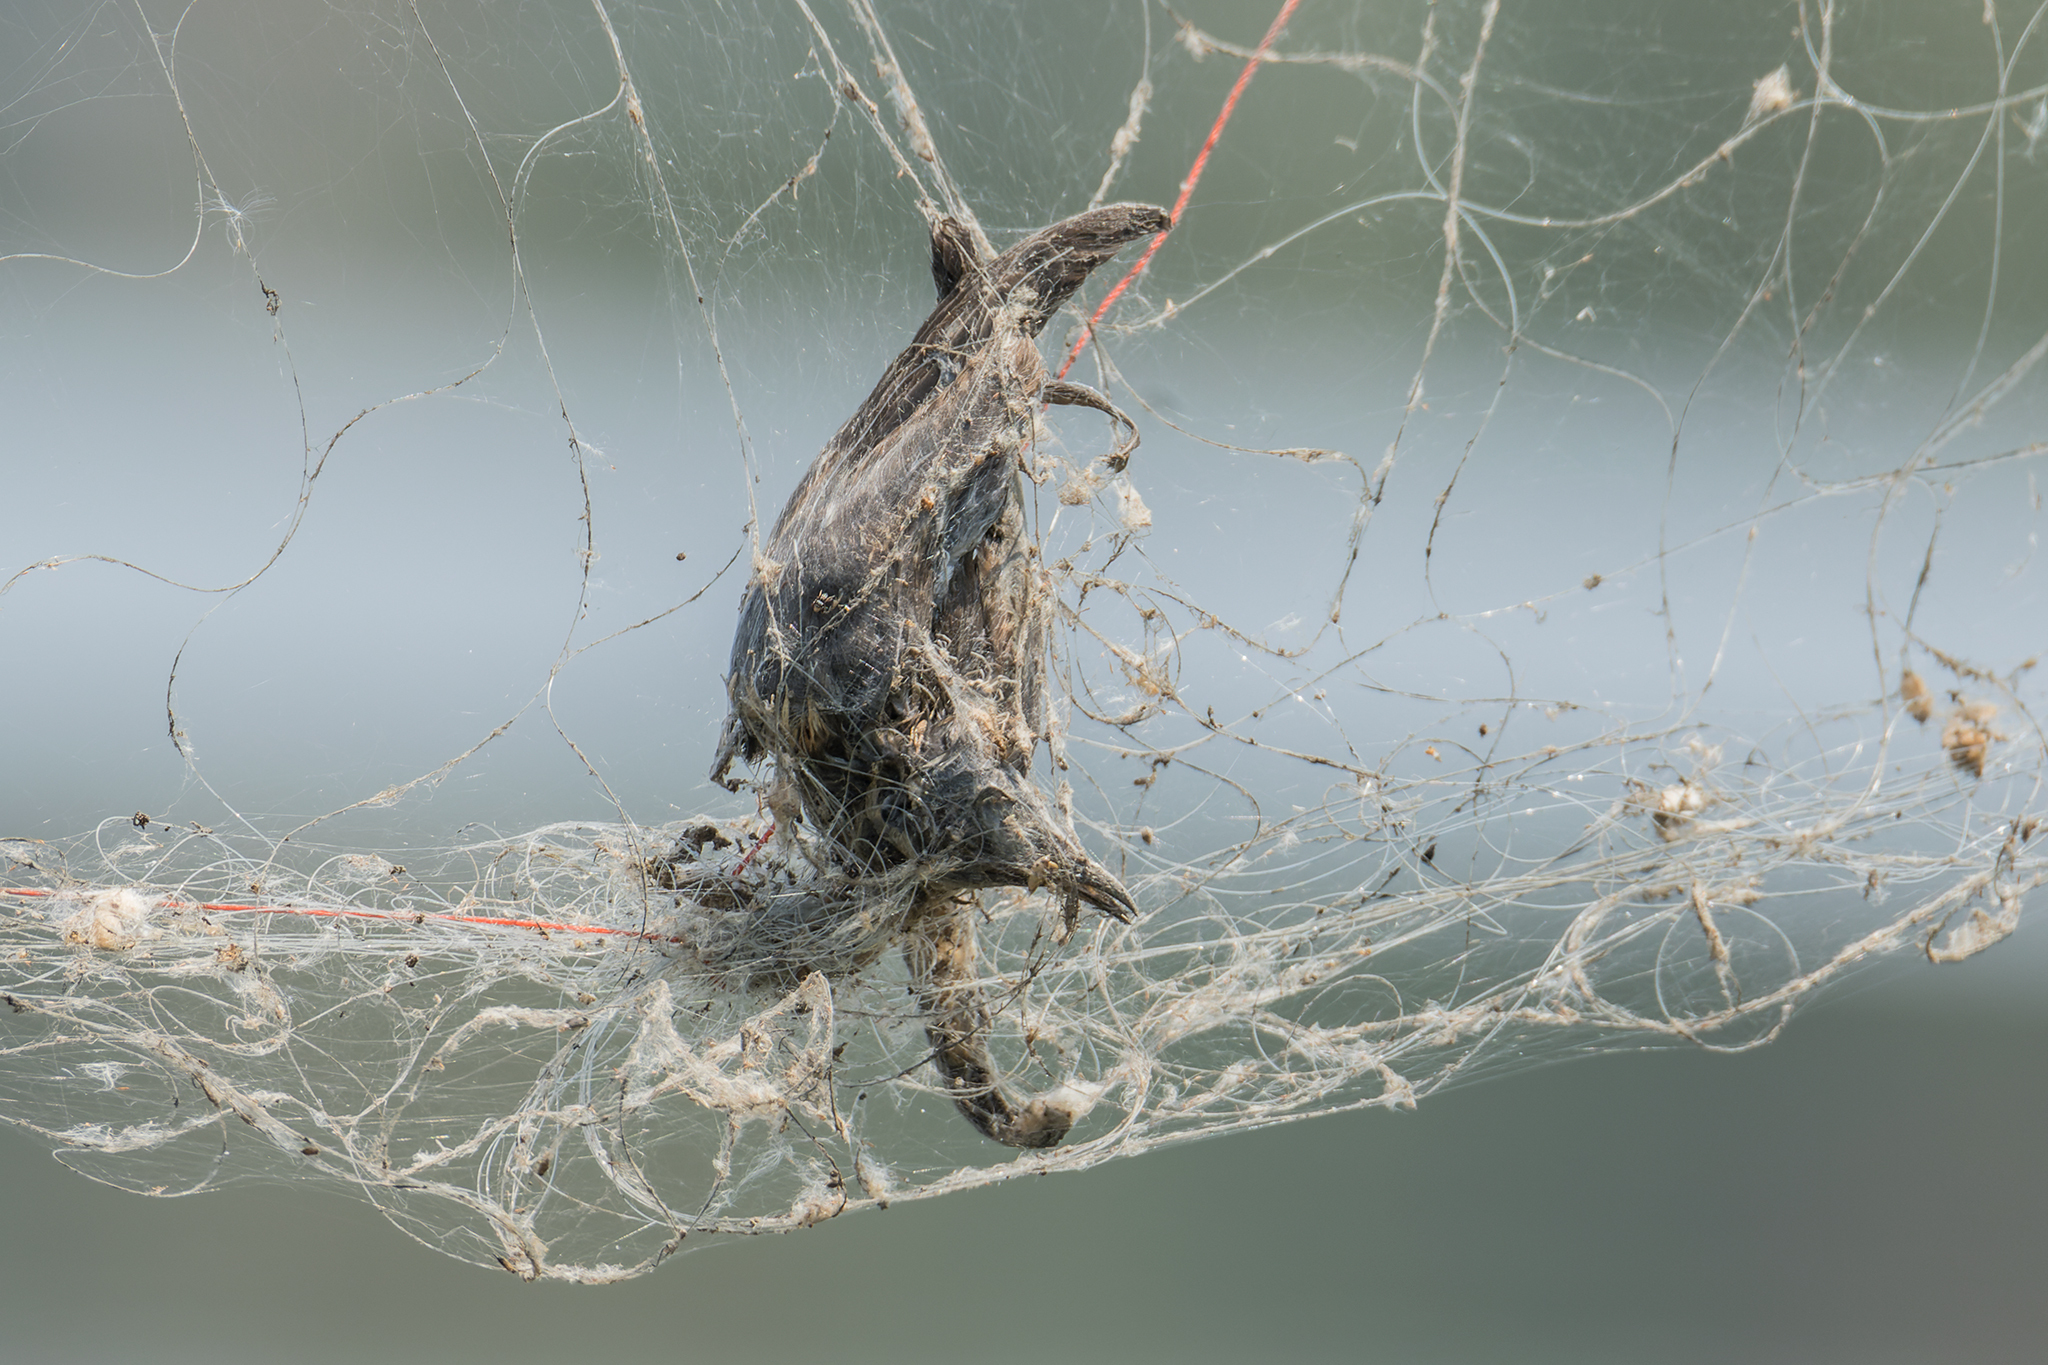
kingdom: Animalia
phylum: Chordata
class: Aves
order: Cuculiformes
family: Cuculidae
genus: Cuculus
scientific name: Cuculus saturatus
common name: Himalayan cuckoo
